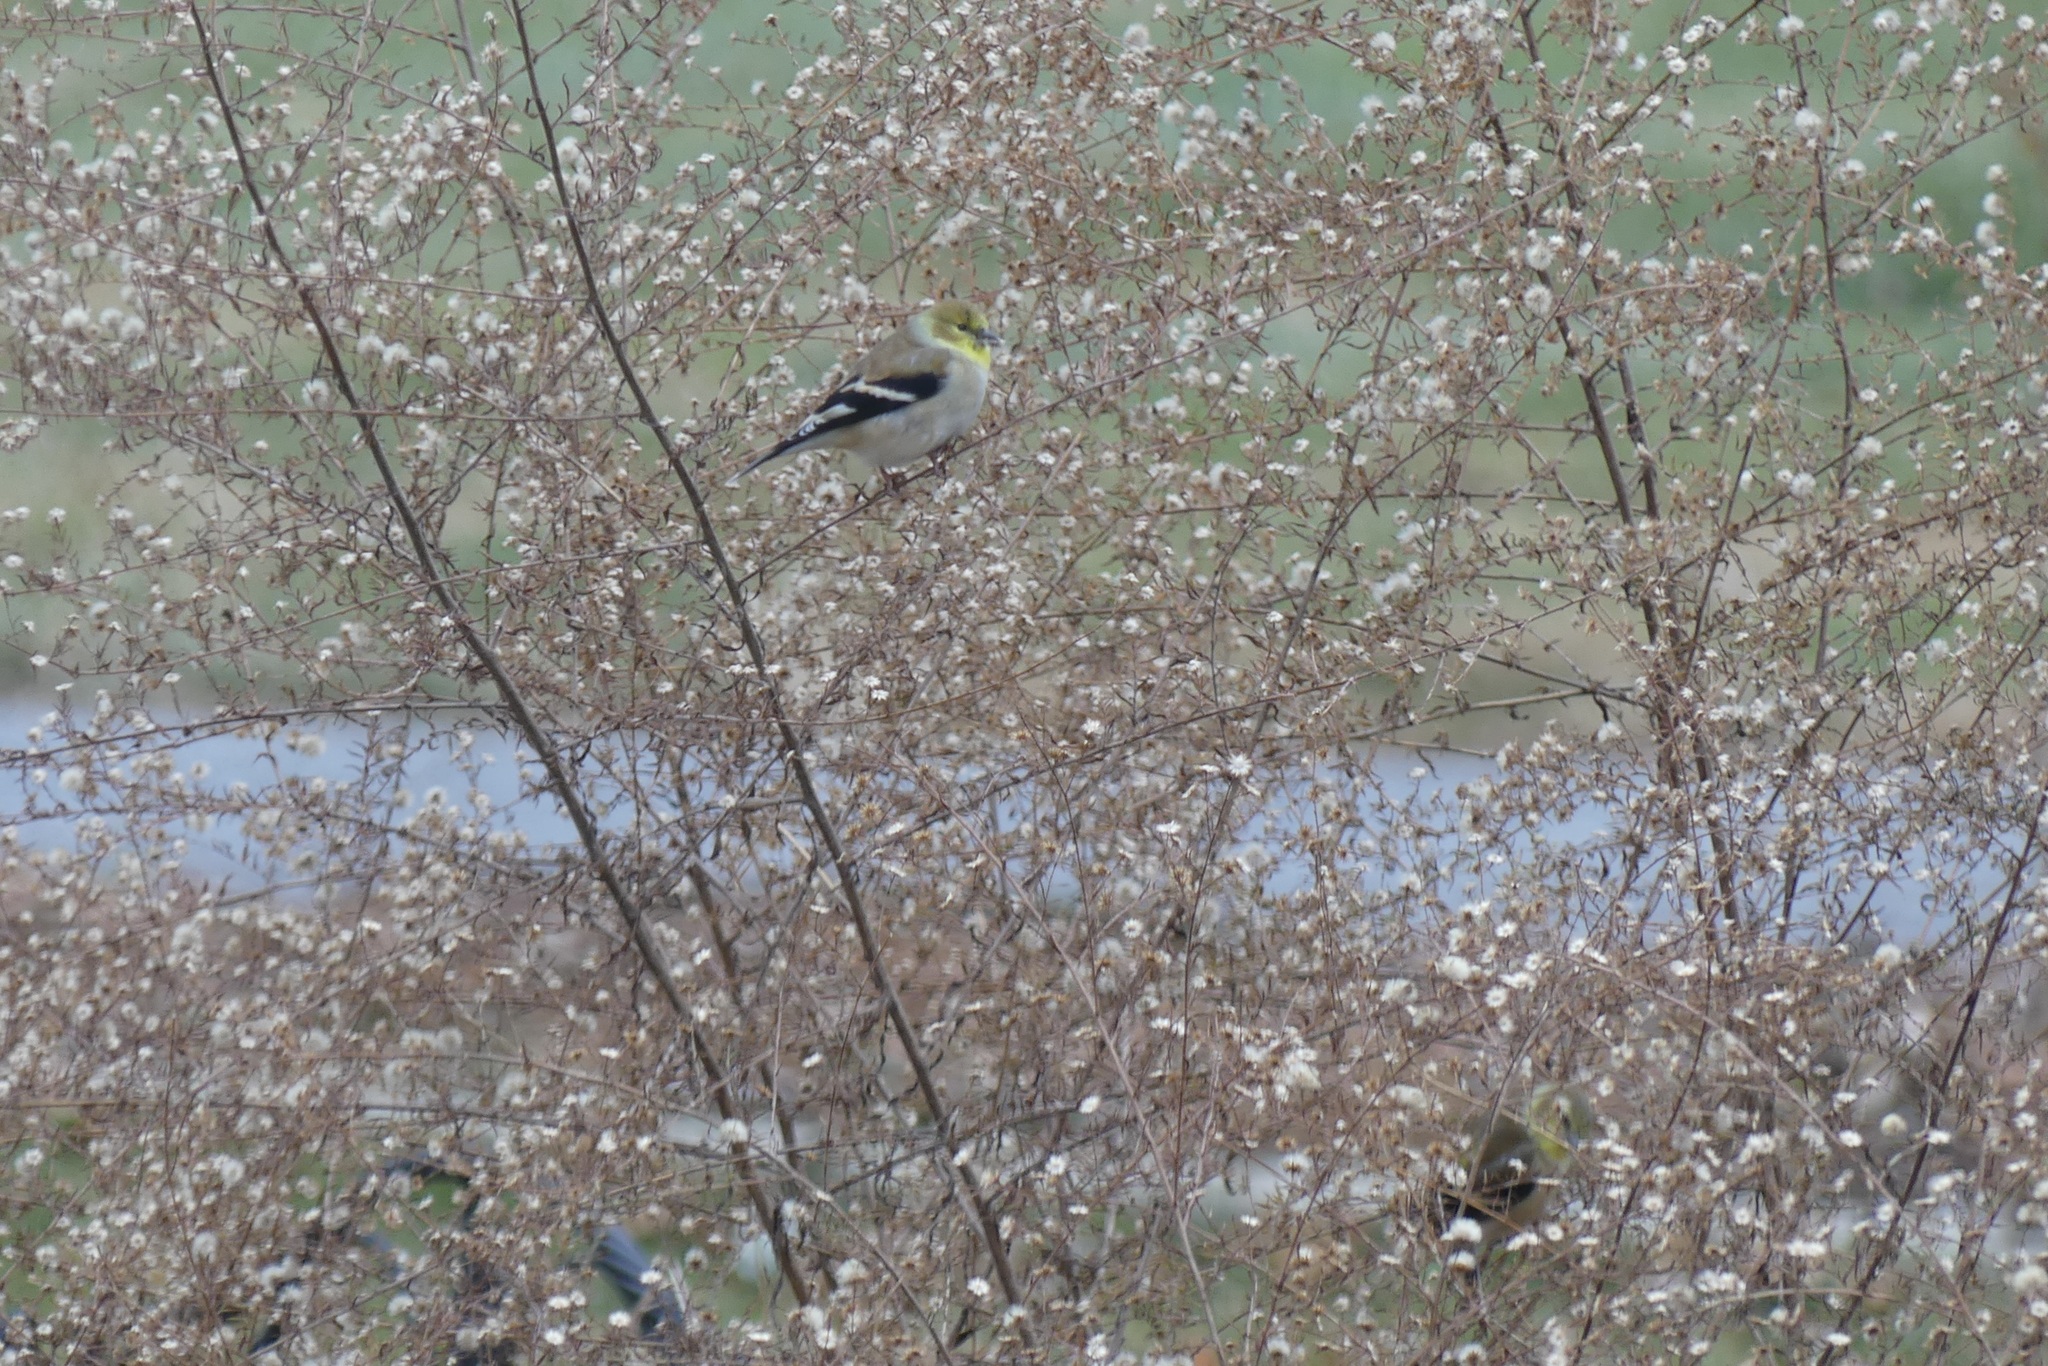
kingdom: Animalia
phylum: Chordata
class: Aves
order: Passeriformes
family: Fringillidae
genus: Spinus
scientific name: Spinus tristis
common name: American goldfinch
